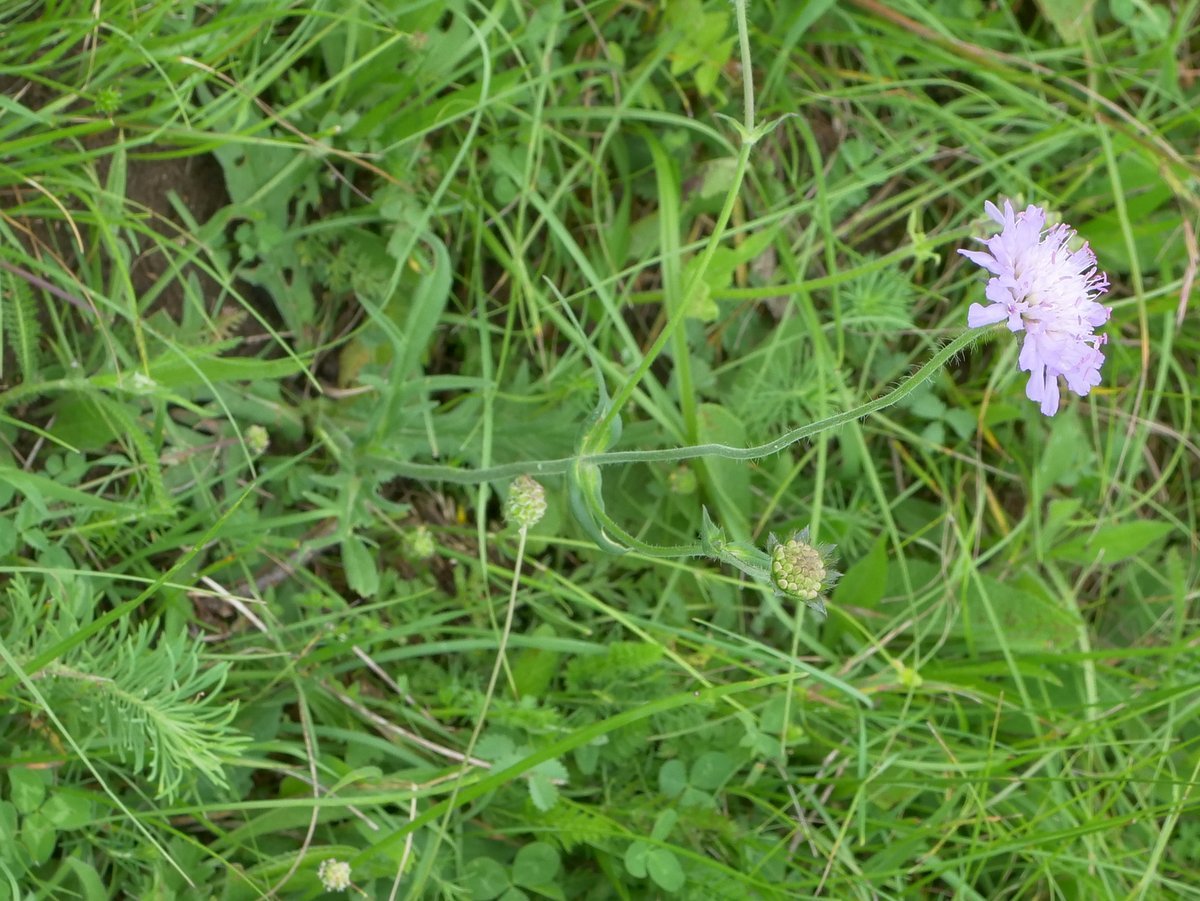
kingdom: Plantae
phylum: Tracheophyta
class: Magnoliopsida
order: Dipsacales
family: Caprifoliaceae
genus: Knautia
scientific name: Knautia arvensis
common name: Field scabiosa
